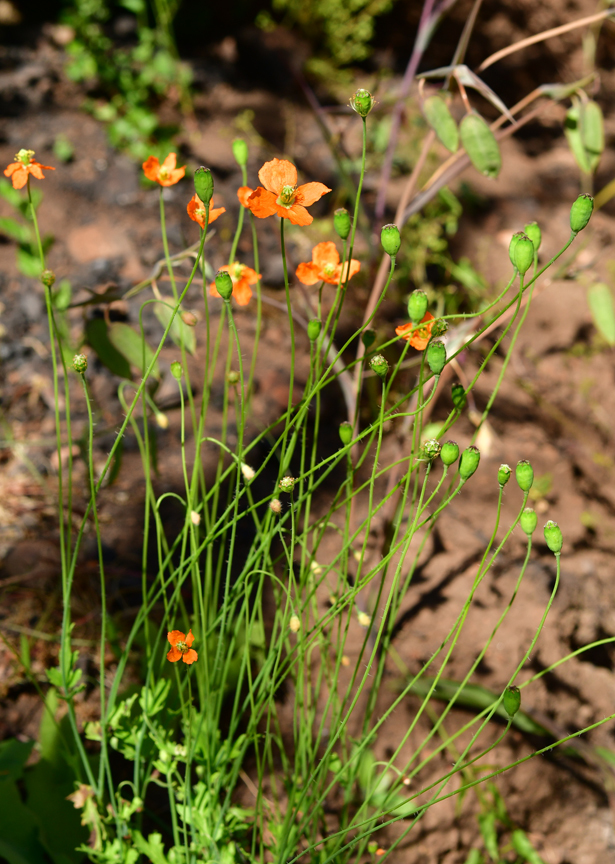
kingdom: Plantae
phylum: Tracheophyta
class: Magnoliopsida
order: Ranunculales
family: Papaveraceae
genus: Papaver
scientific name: Papaver californicum
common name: Fire poppy
